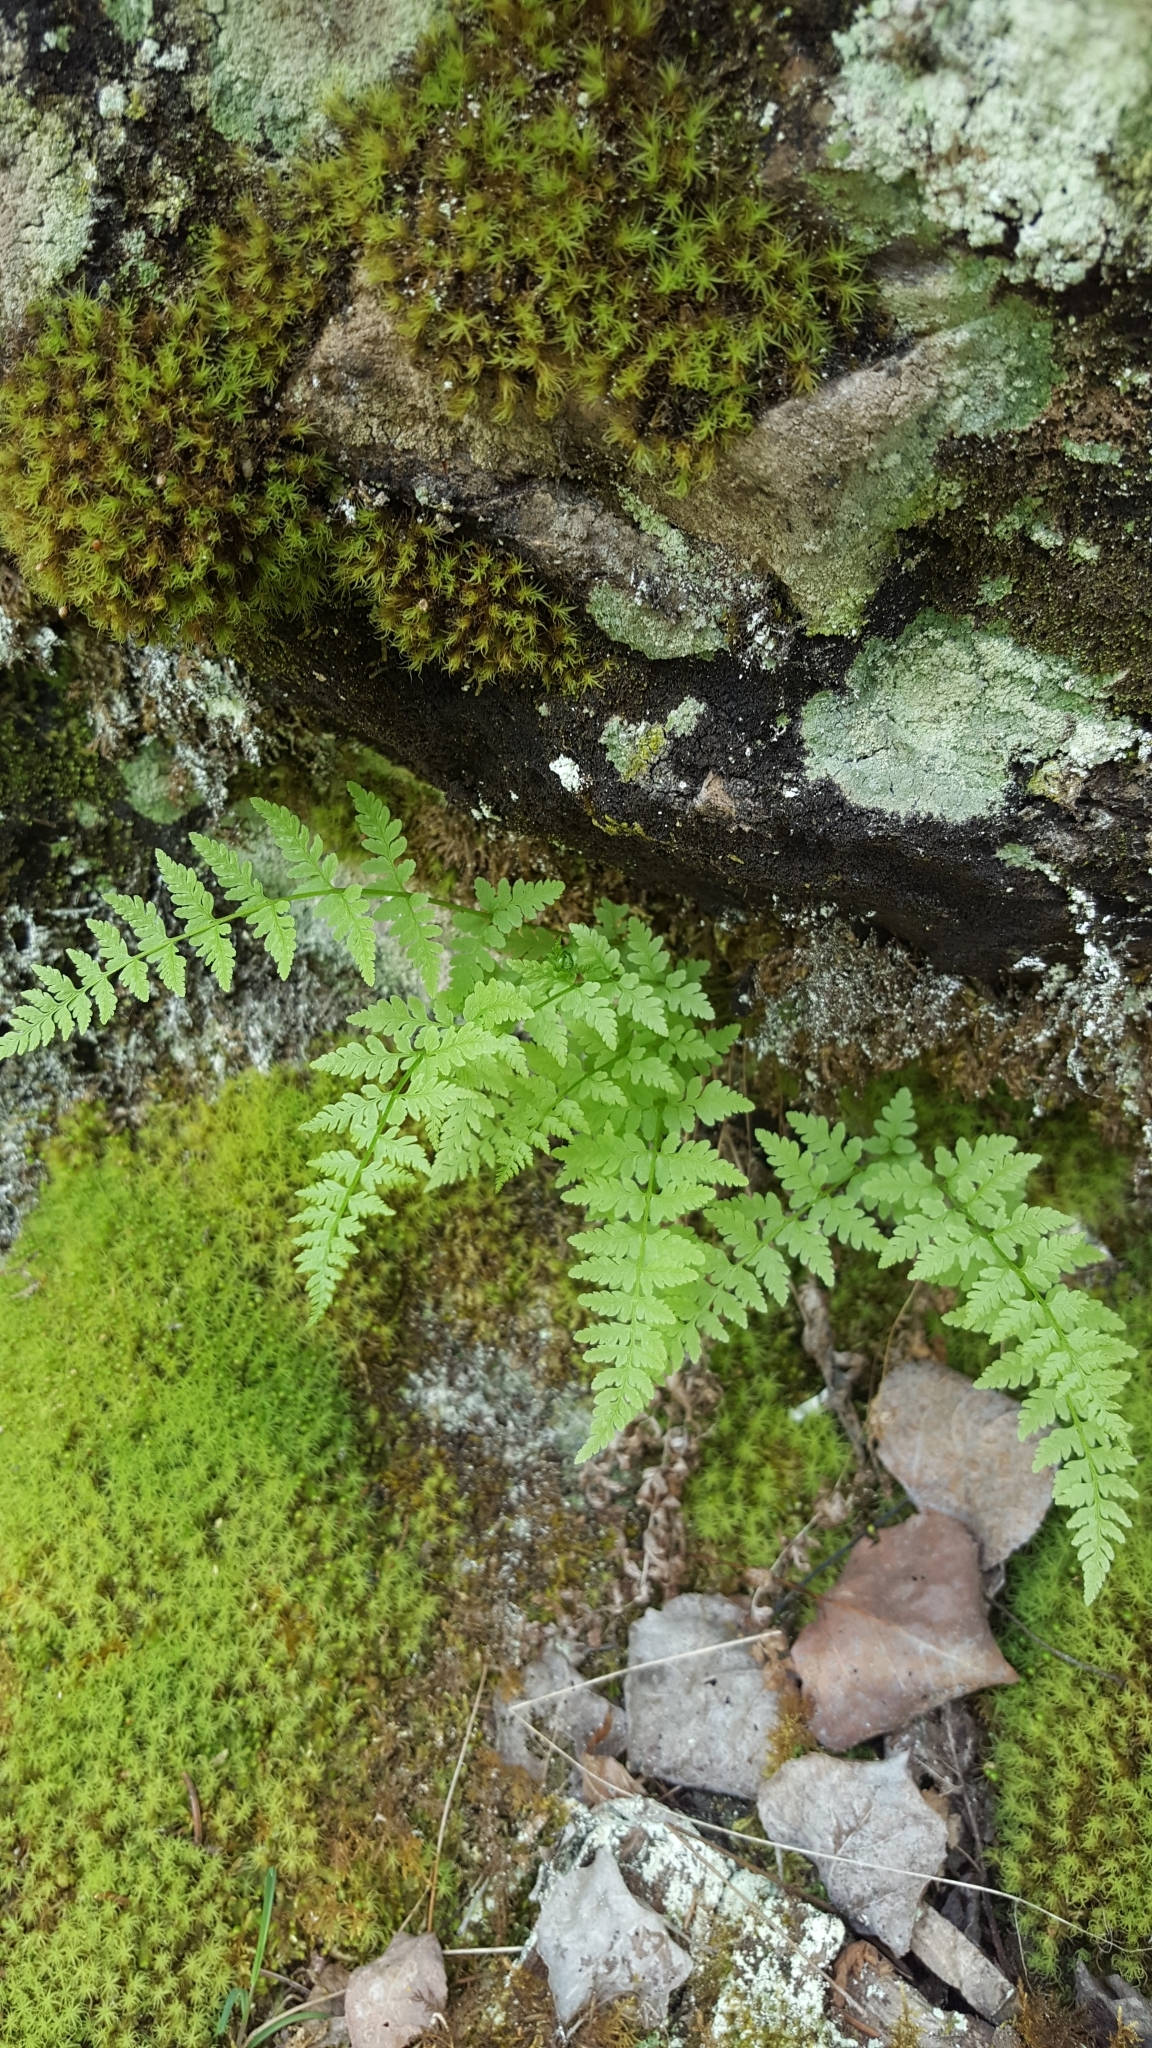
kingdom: Plantae
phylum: Tracheophyta
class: Polypodiopsida
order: Polypodiales
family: Cystopteridaceae
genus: Cystopteris
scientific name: Cystopteris fragilis
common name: Brittle bladder fern
